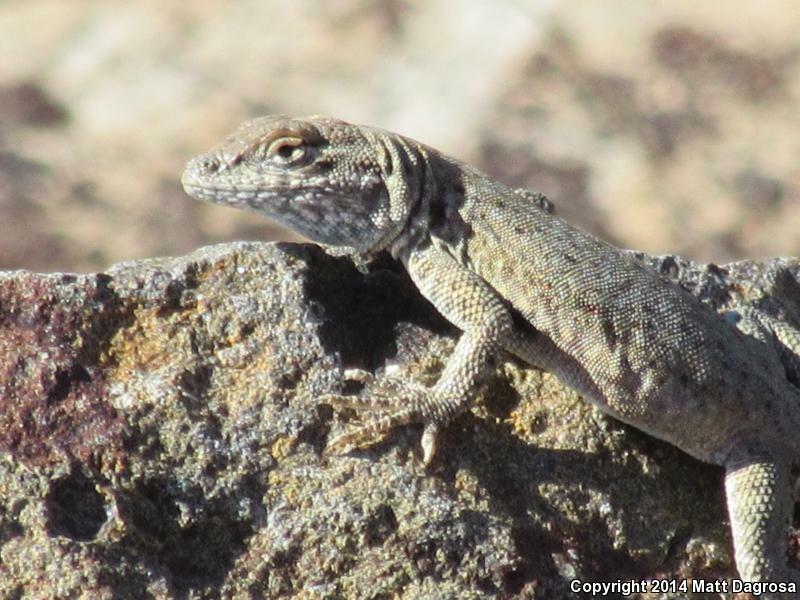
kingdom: Animalia
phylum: Chordata
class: Squamata
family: Phrynosomatidae
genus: Uta
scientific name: Uta stansburiana
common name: Side-blotched lizard
